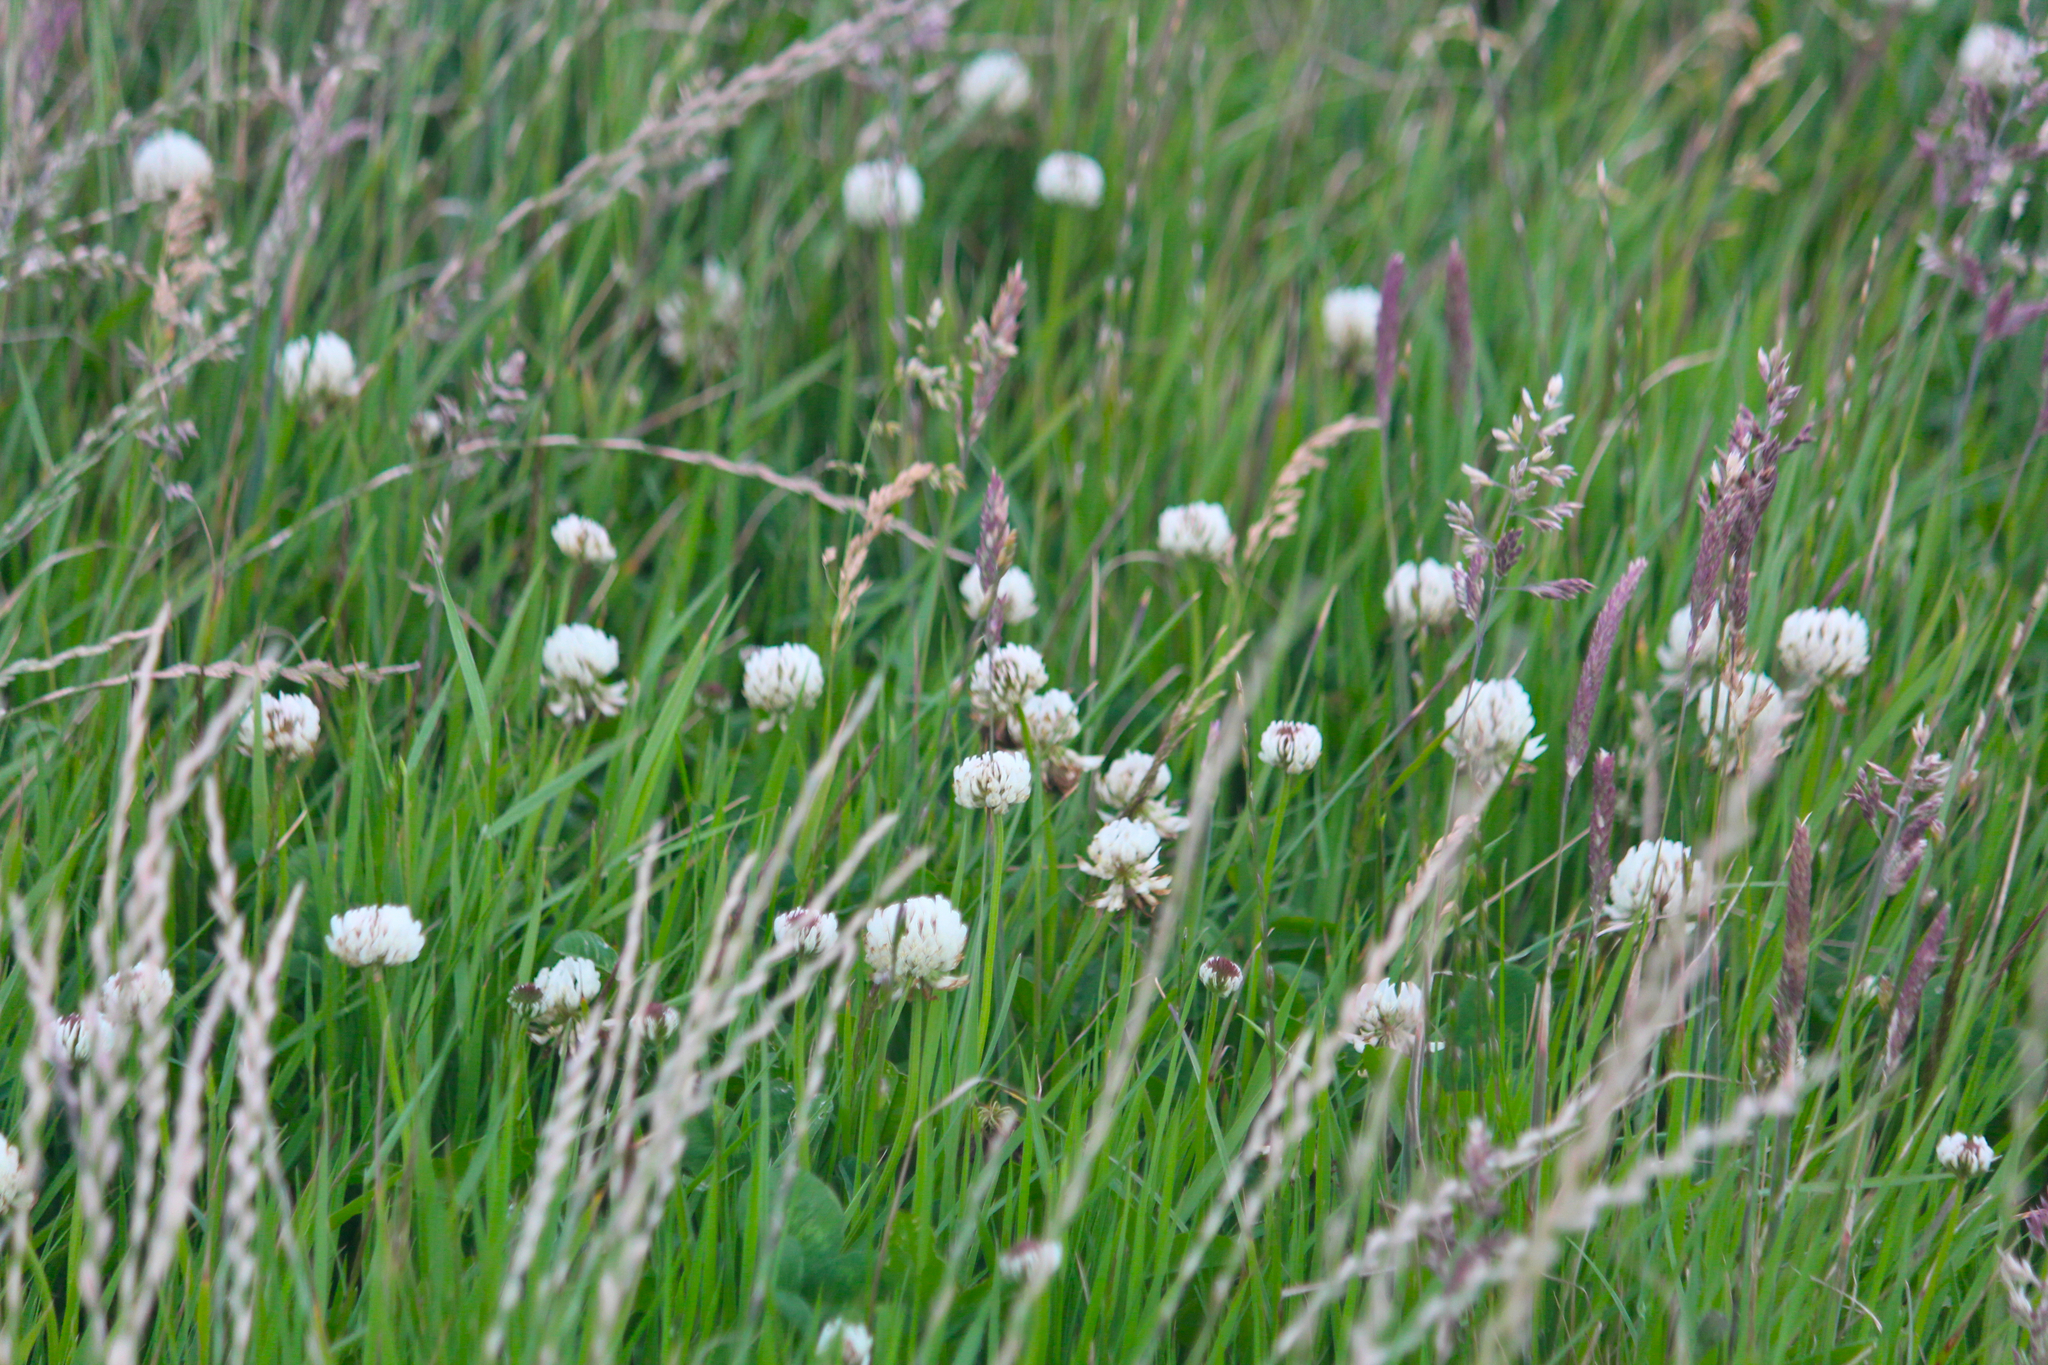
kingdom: Plantae
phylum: Tracheophyta
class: Magnoliopsida
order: Fabales
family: Fabaceae
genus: Trifolium
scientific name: Trifolium repens
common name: White clover
